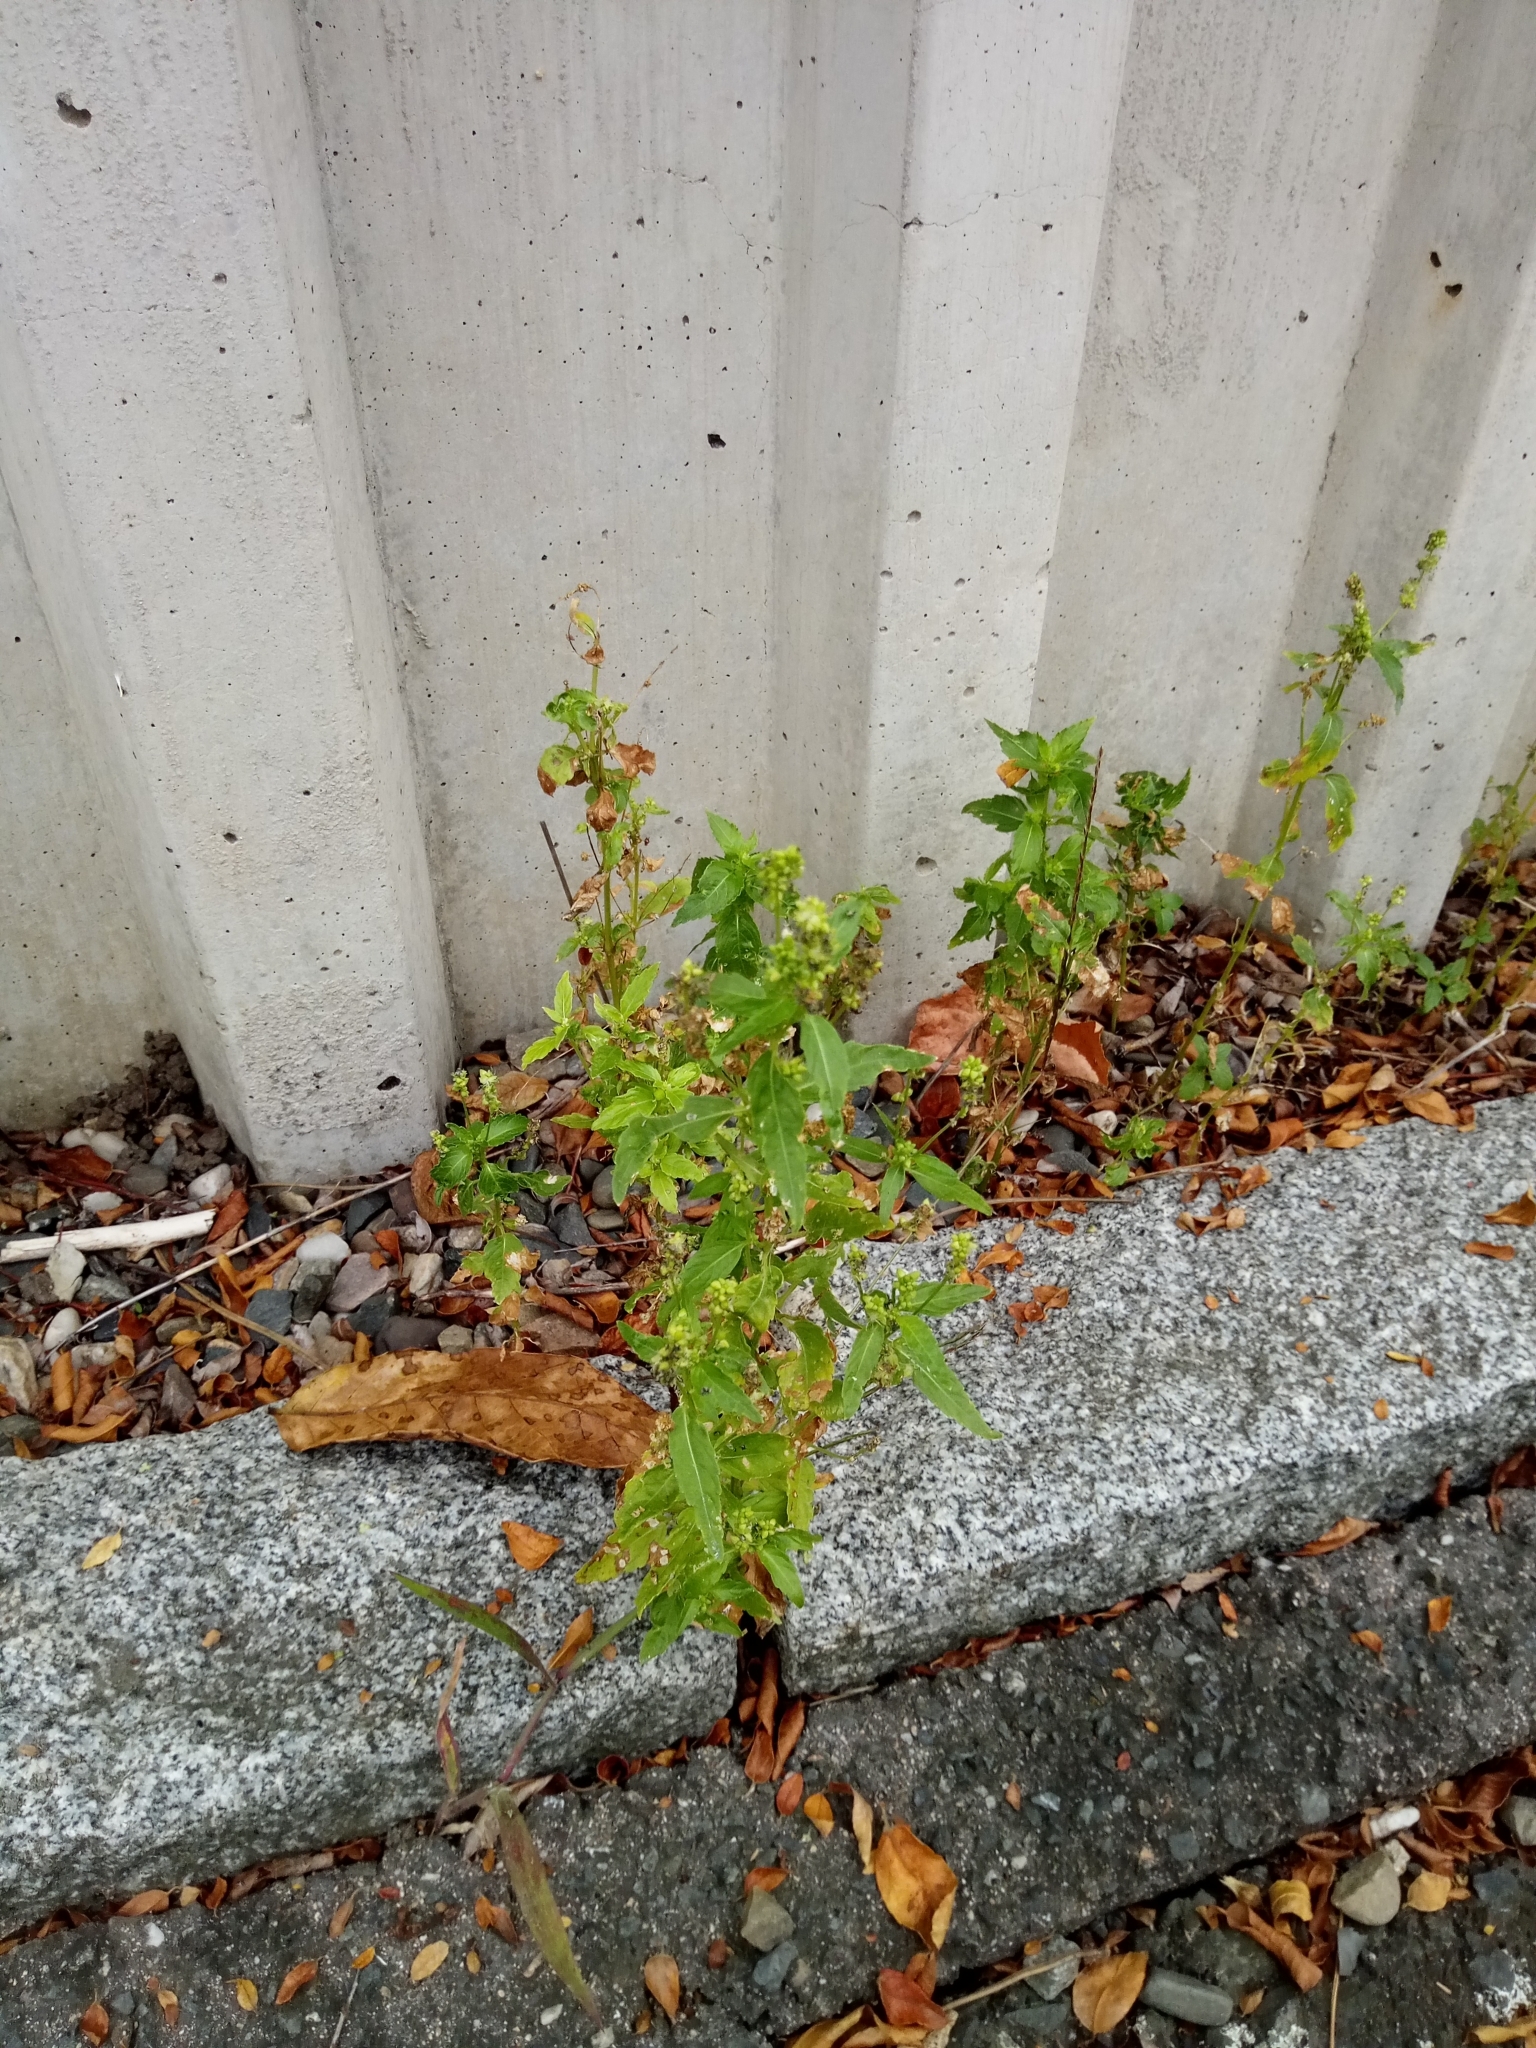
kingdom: Plantae
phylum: Tracheophyta
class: Magnoliopsida
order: Malpighiales
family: Euphorbiaceae
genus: Mercurialis
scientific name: Mercurialis annua
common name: Annual mercury
